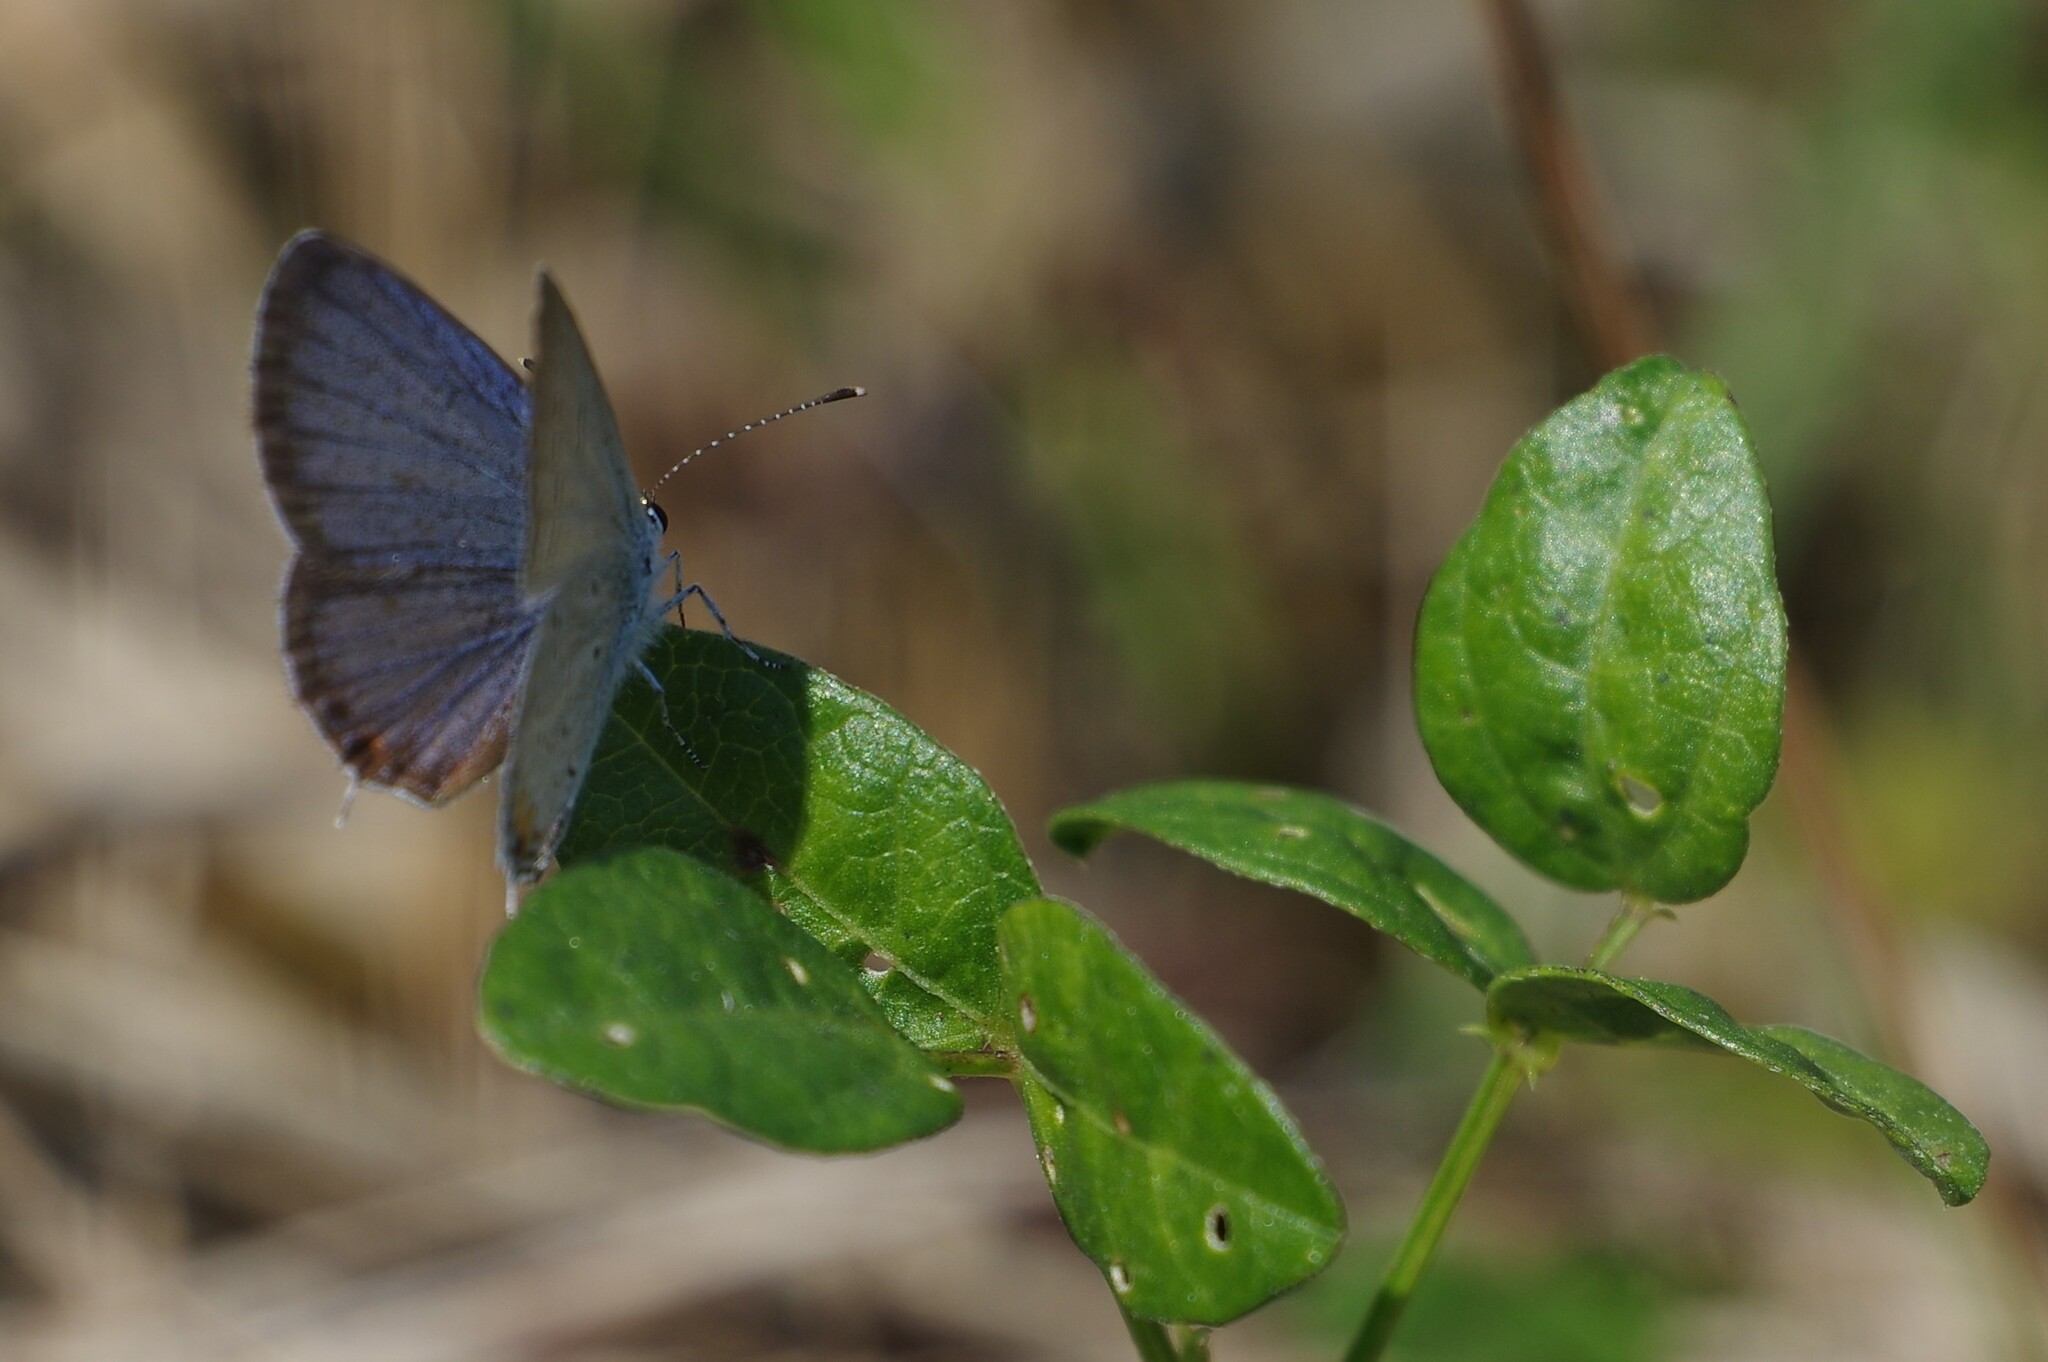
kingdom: Animalia
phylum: Arthropoda
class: Insecta
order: Lepidoptera
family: Lycaenidae
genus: Elkalyce
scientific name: Elkalyce comyntas
